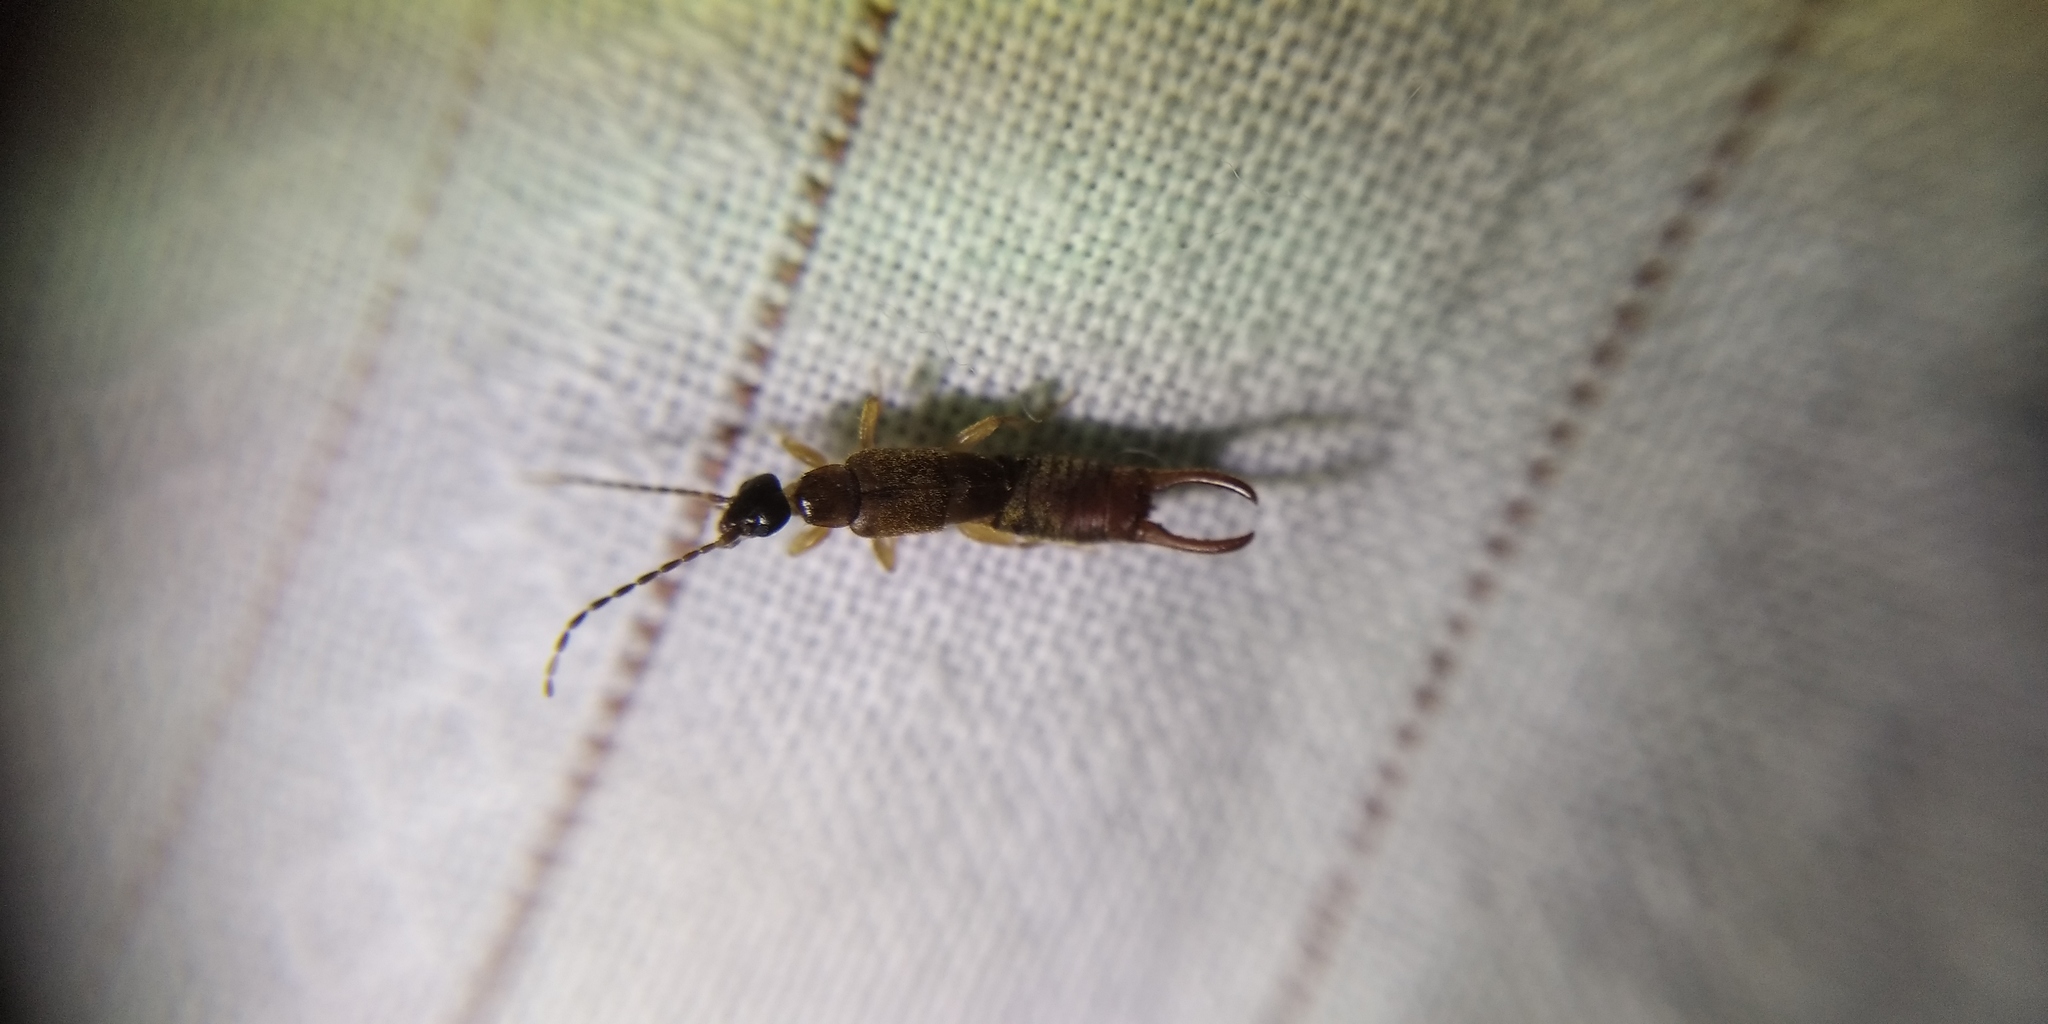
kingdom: Animalia
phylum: Arthropoda
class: Insecta
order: Dermaptera
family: Spongiphoridae
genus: Labia
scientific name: Labia minor
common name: Lesser earwig
